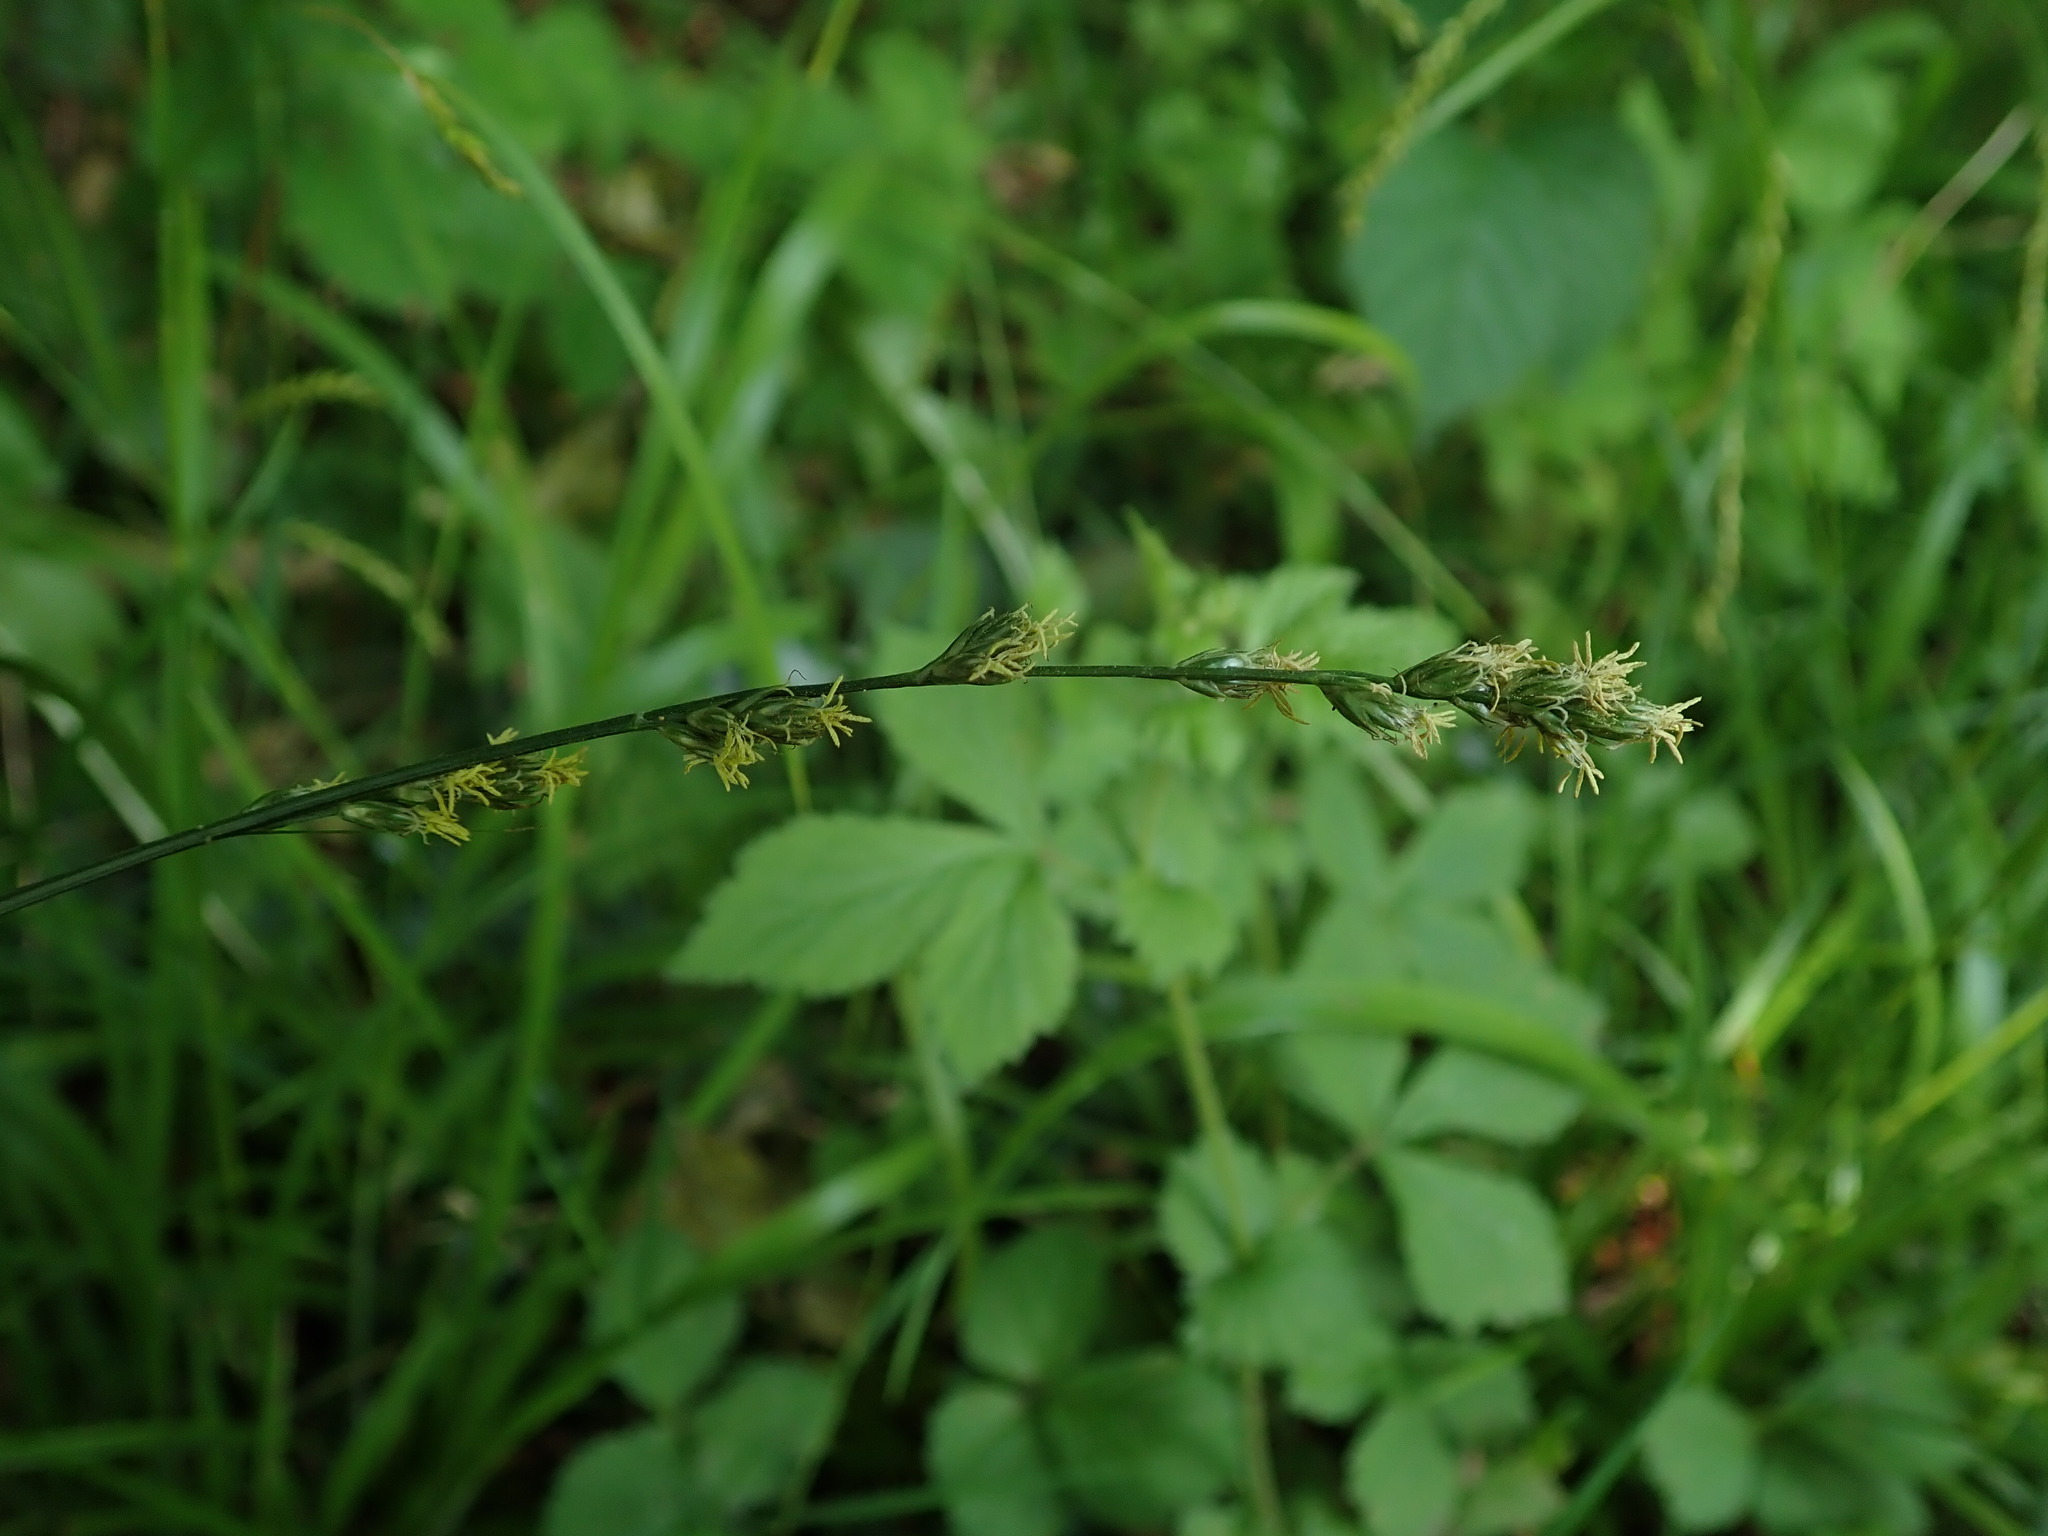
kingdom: Plantae
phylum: Tracheophyta
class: Liliopsida
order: Poales
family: Cyperaceae
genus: Carex
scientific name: Carex divulsa
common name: Grassland sedge
